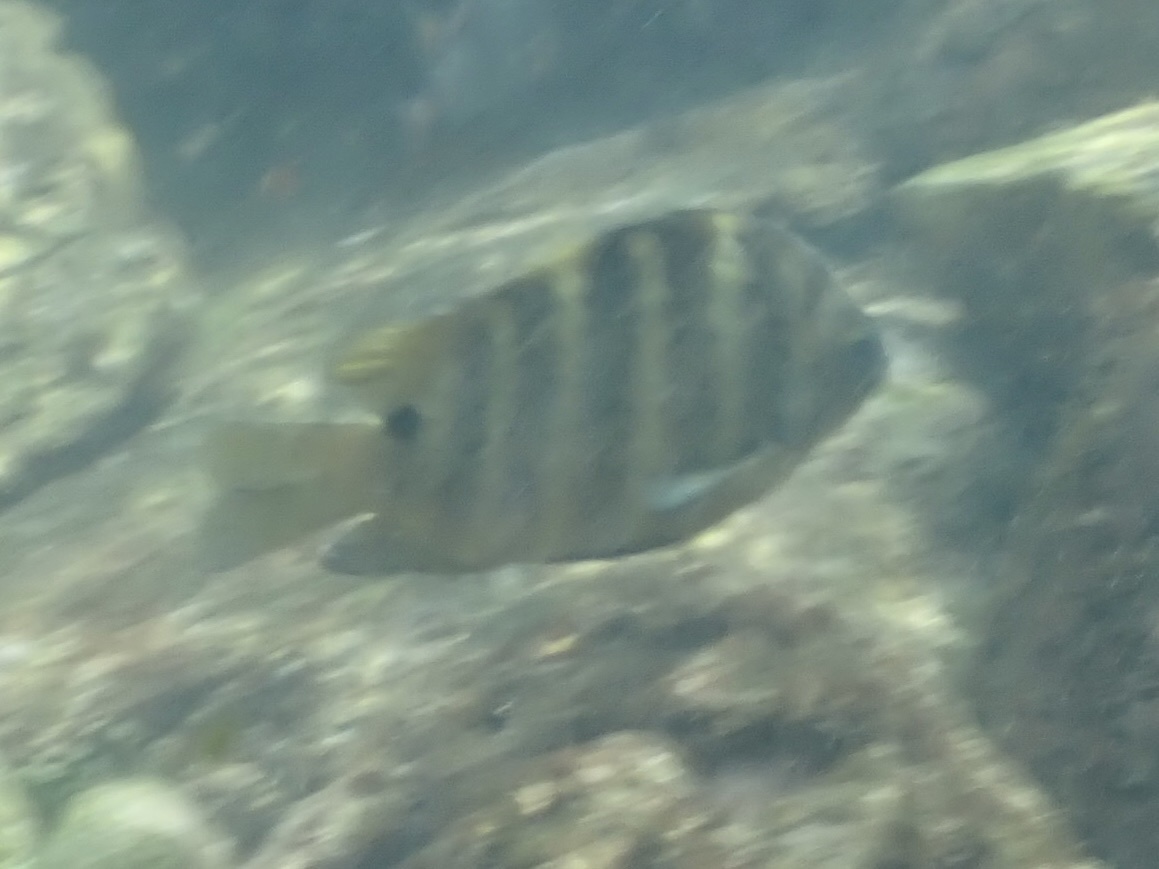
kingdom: Animalia
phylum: Chordata
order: Perciformes
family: Pomacentridae
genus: Abudefduf
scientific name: Abudefduf sordidus
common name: Blackspot sergeant
